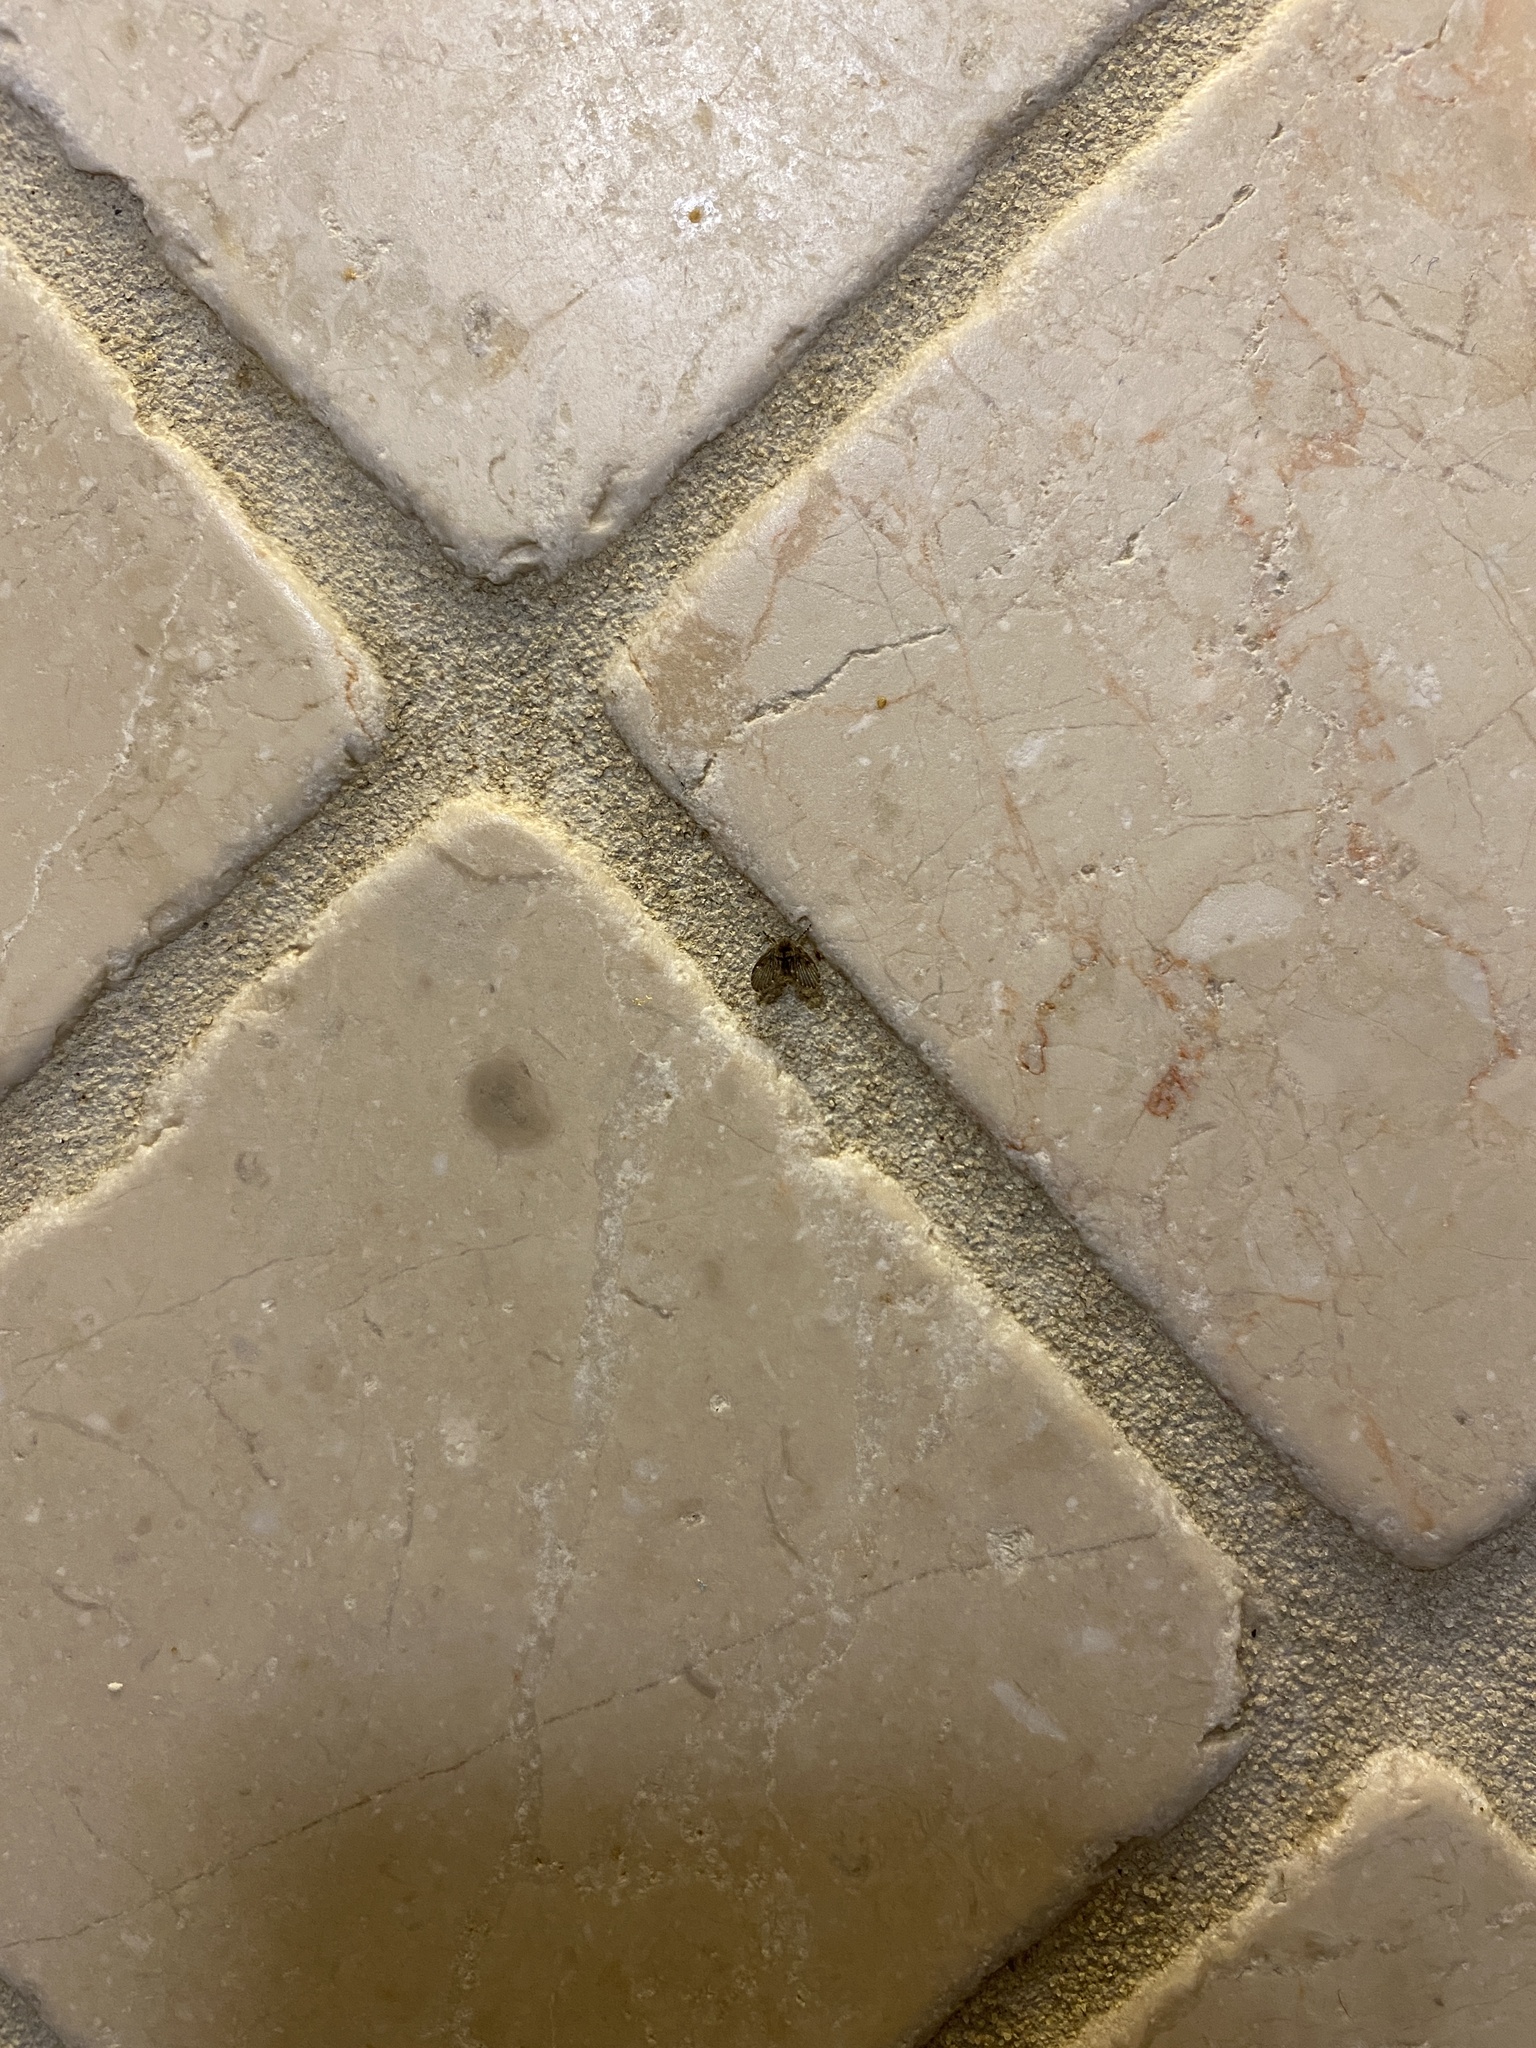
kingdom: Animalia
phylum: Arthropoda
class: Insecta
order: Diptera
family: Psychodidae
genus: Clogmia
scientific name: Clogmia albipunctatus
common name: White-spotted moth fly
